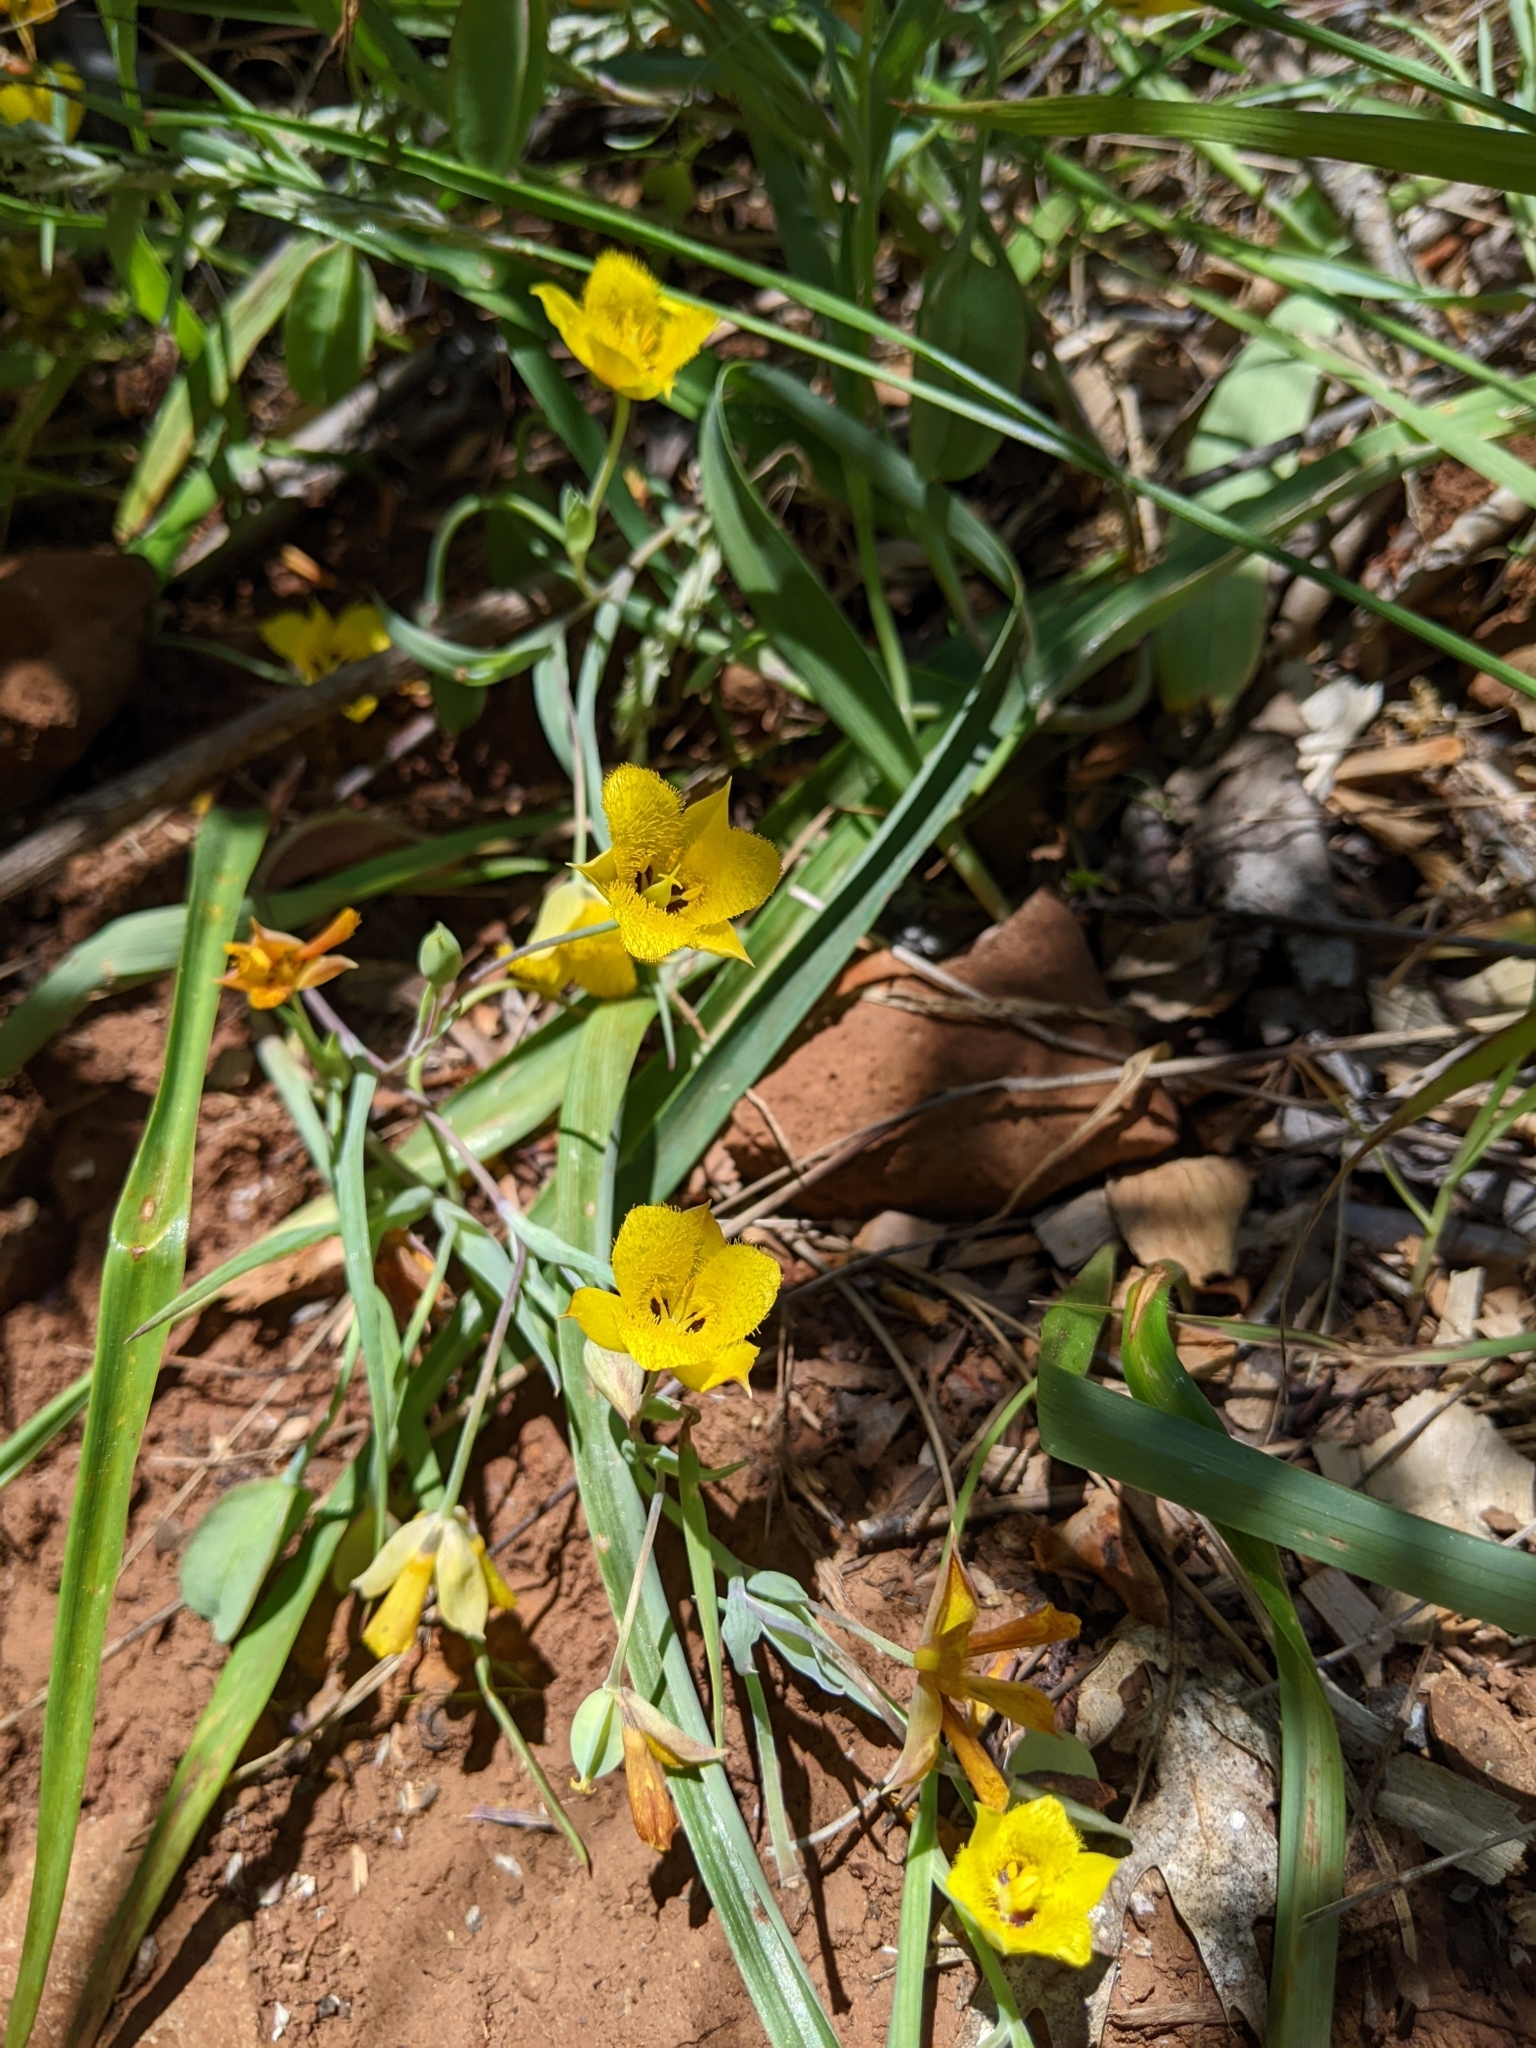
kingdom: Plantae
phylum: Tracheophyta
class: Liliopsida
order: Liliales
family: Liliaceae
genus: Calochortus
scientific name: Calochortus monophyllus
